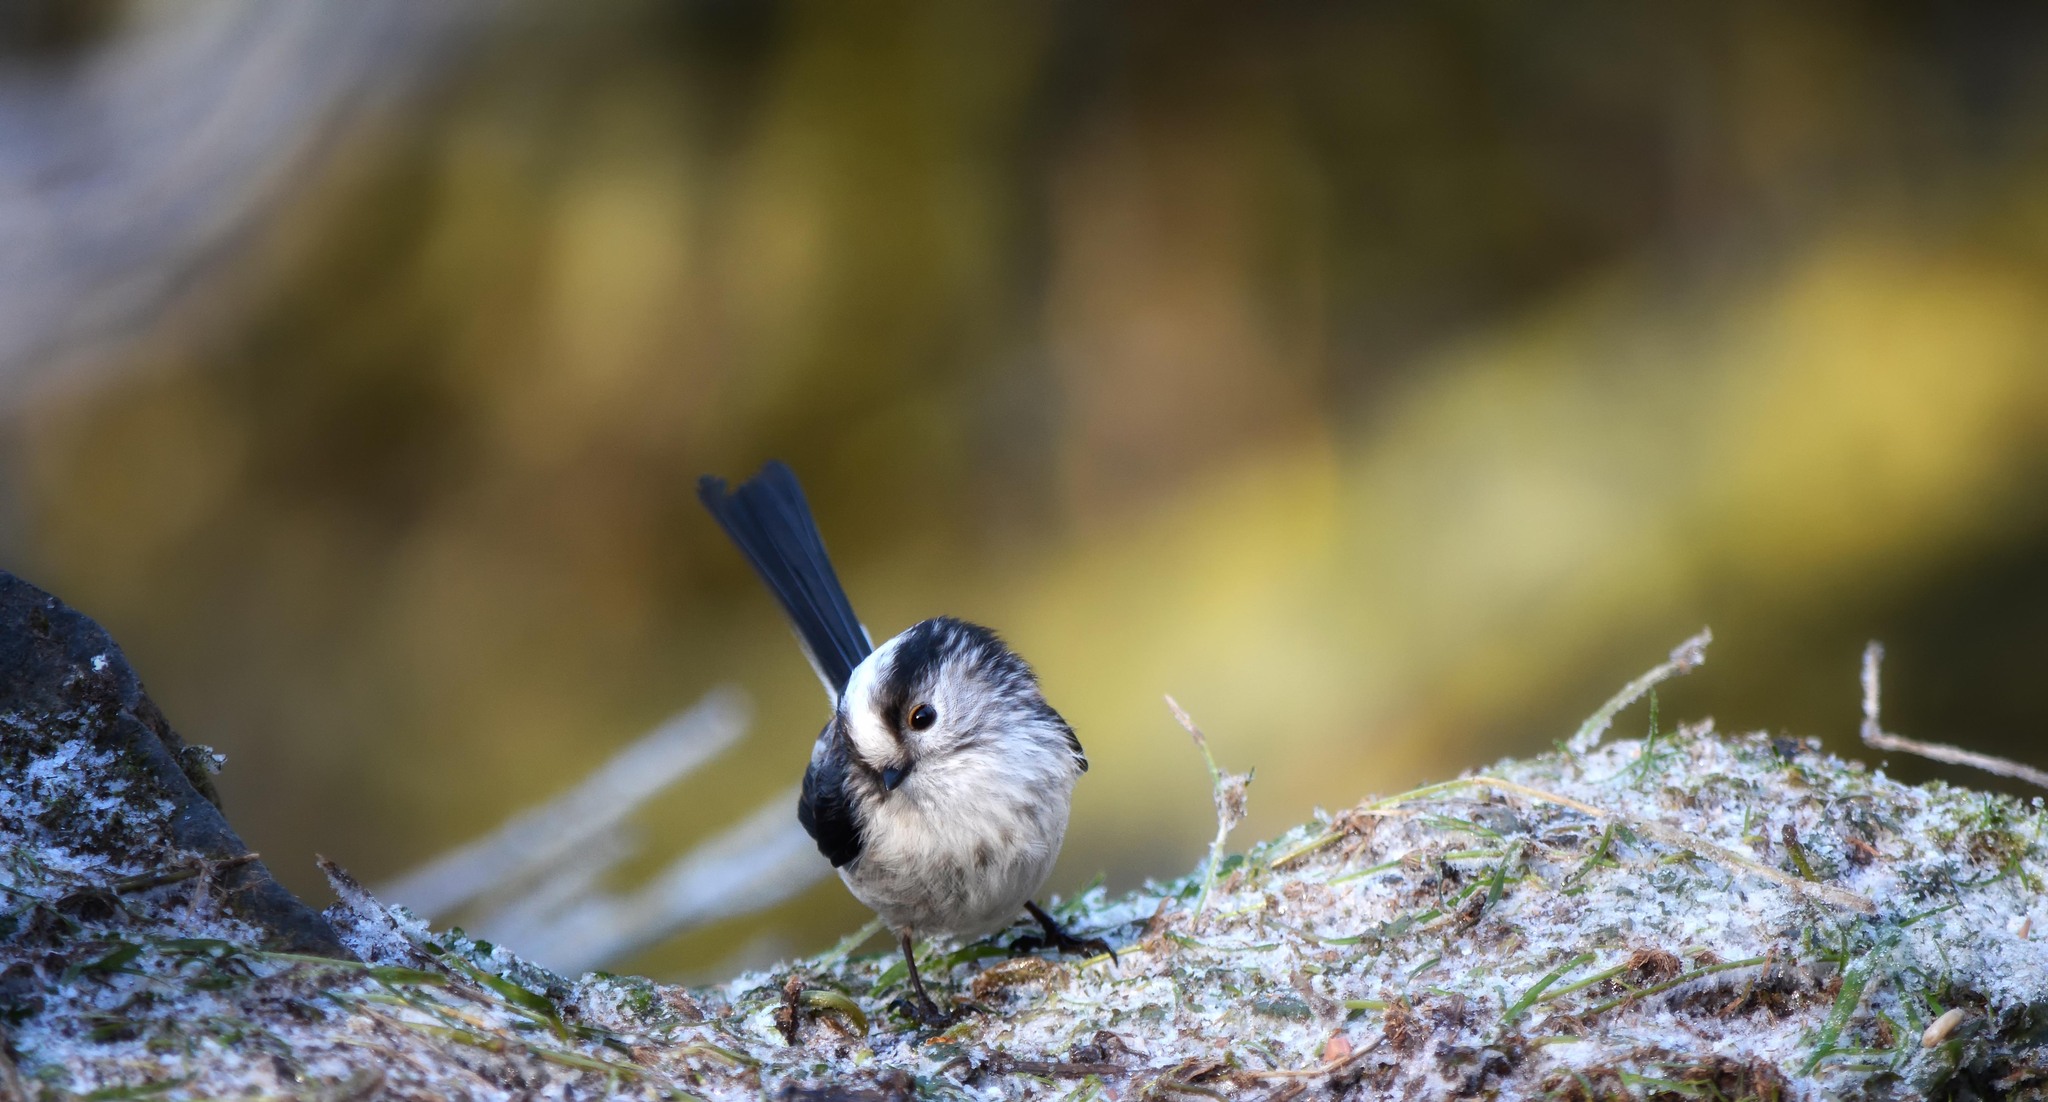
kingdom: Animalia
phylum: Chordata
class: Aves
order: Passeriformes
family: Aegithalidae
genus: Aegithalos
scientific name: Aegithalos caudatus
